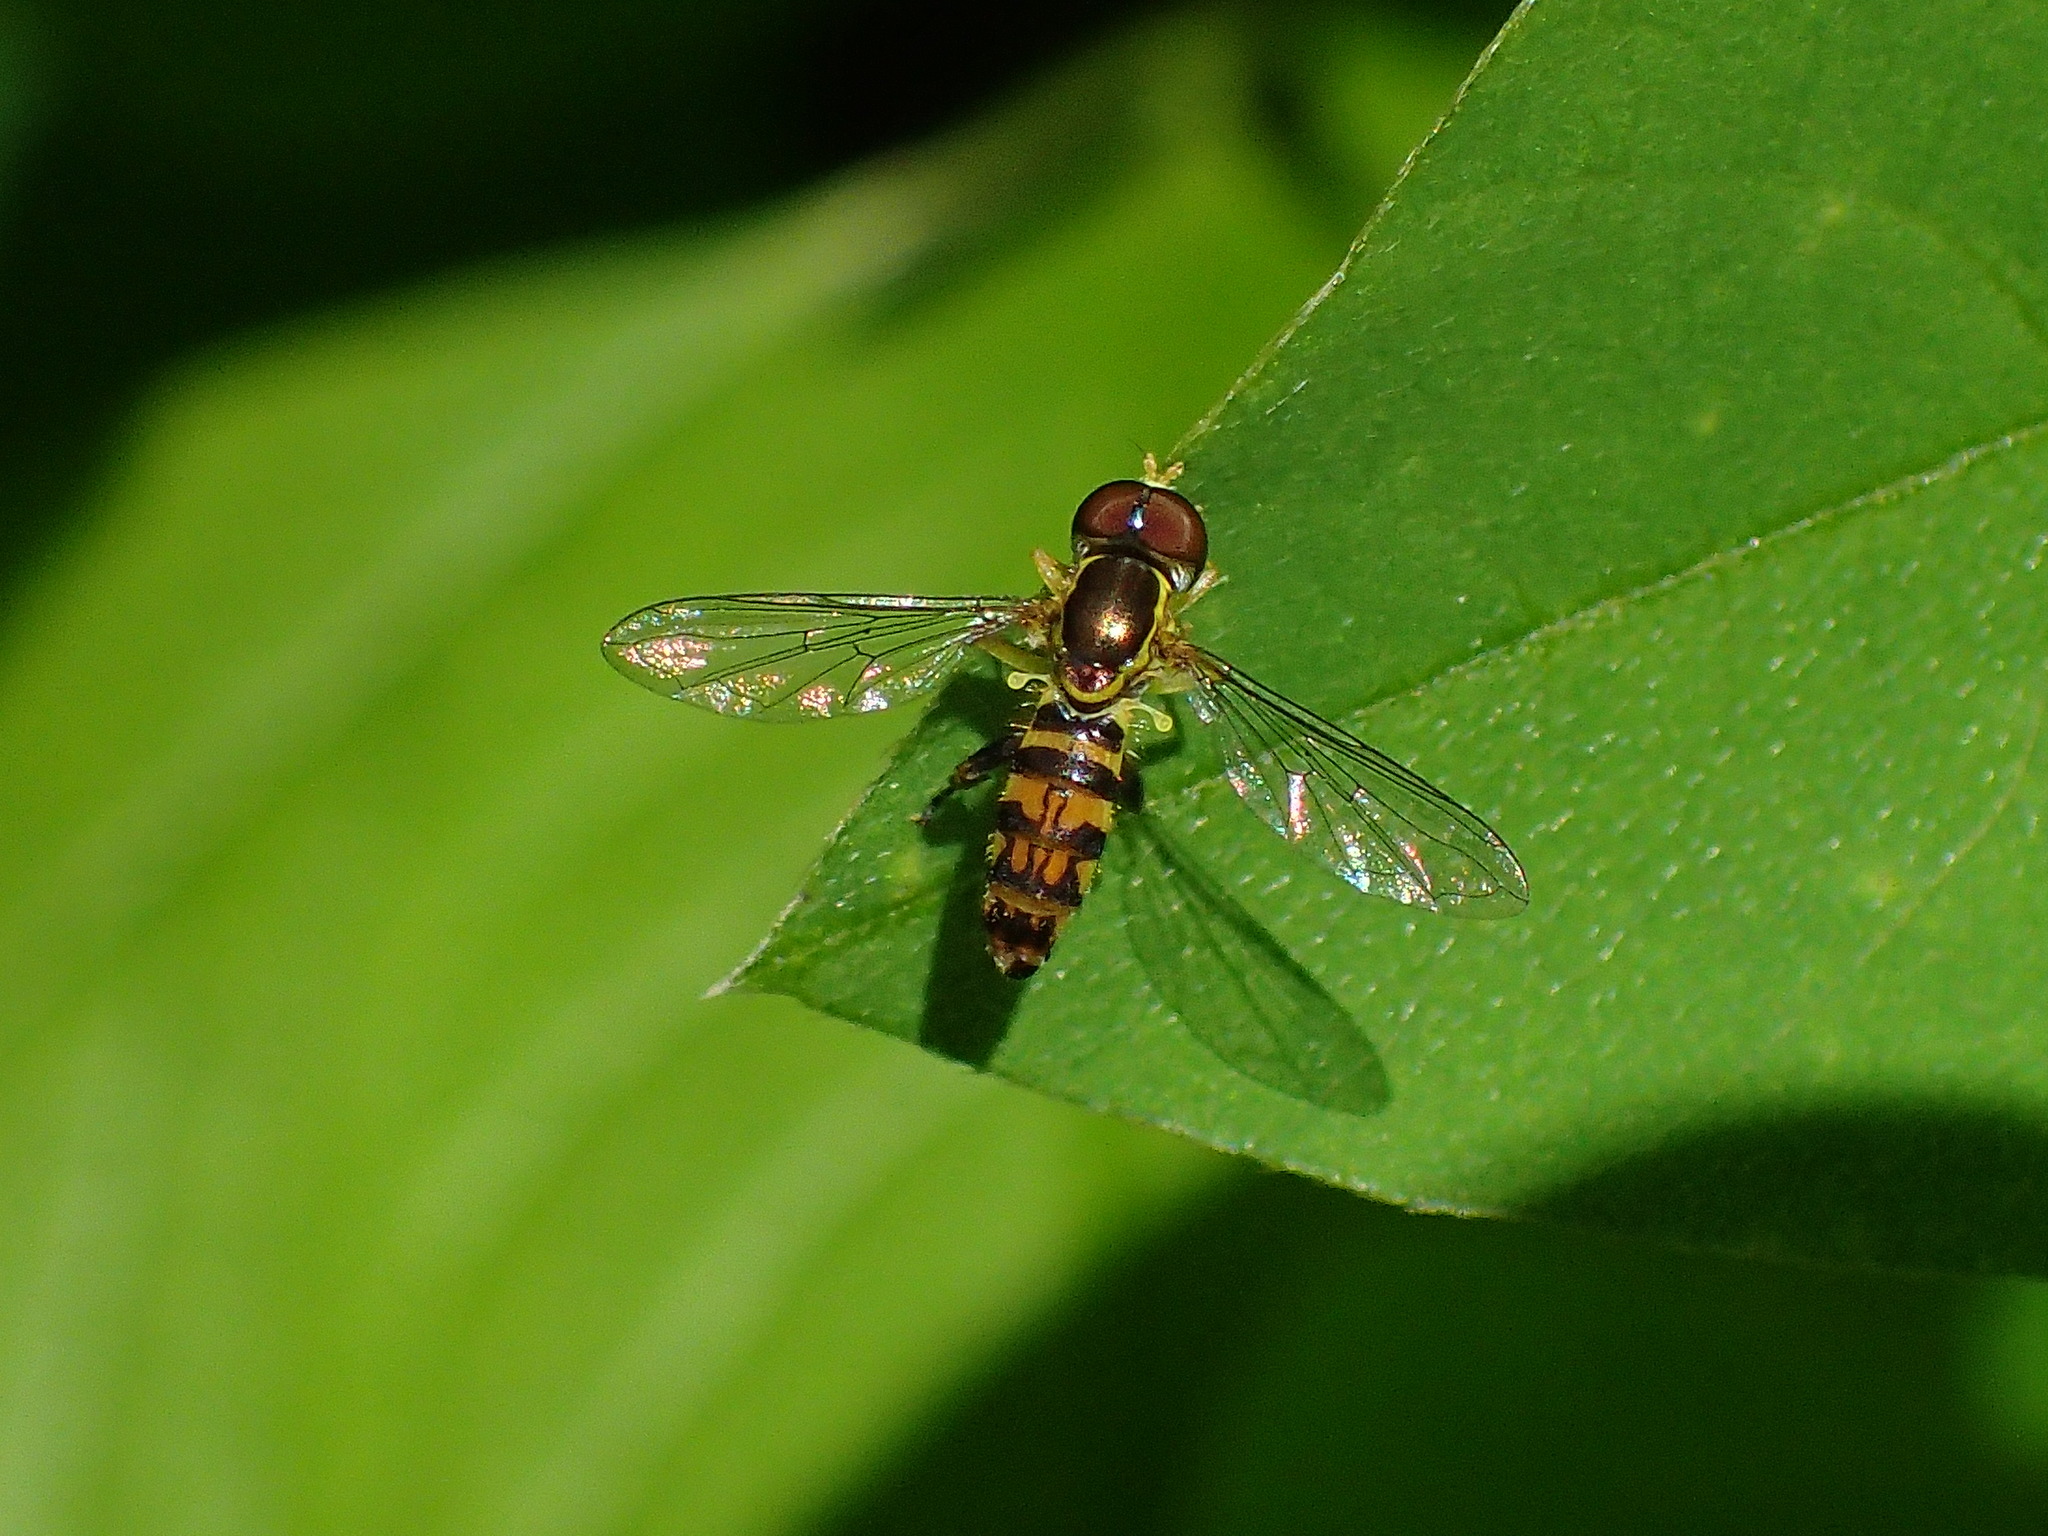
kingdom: Animalia
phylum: Arthropoda
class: Insecta
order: Diptera
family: Syrphidae
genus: Toxomerus
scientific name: Toxomerus geminatus
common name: Eastern calligrapher
